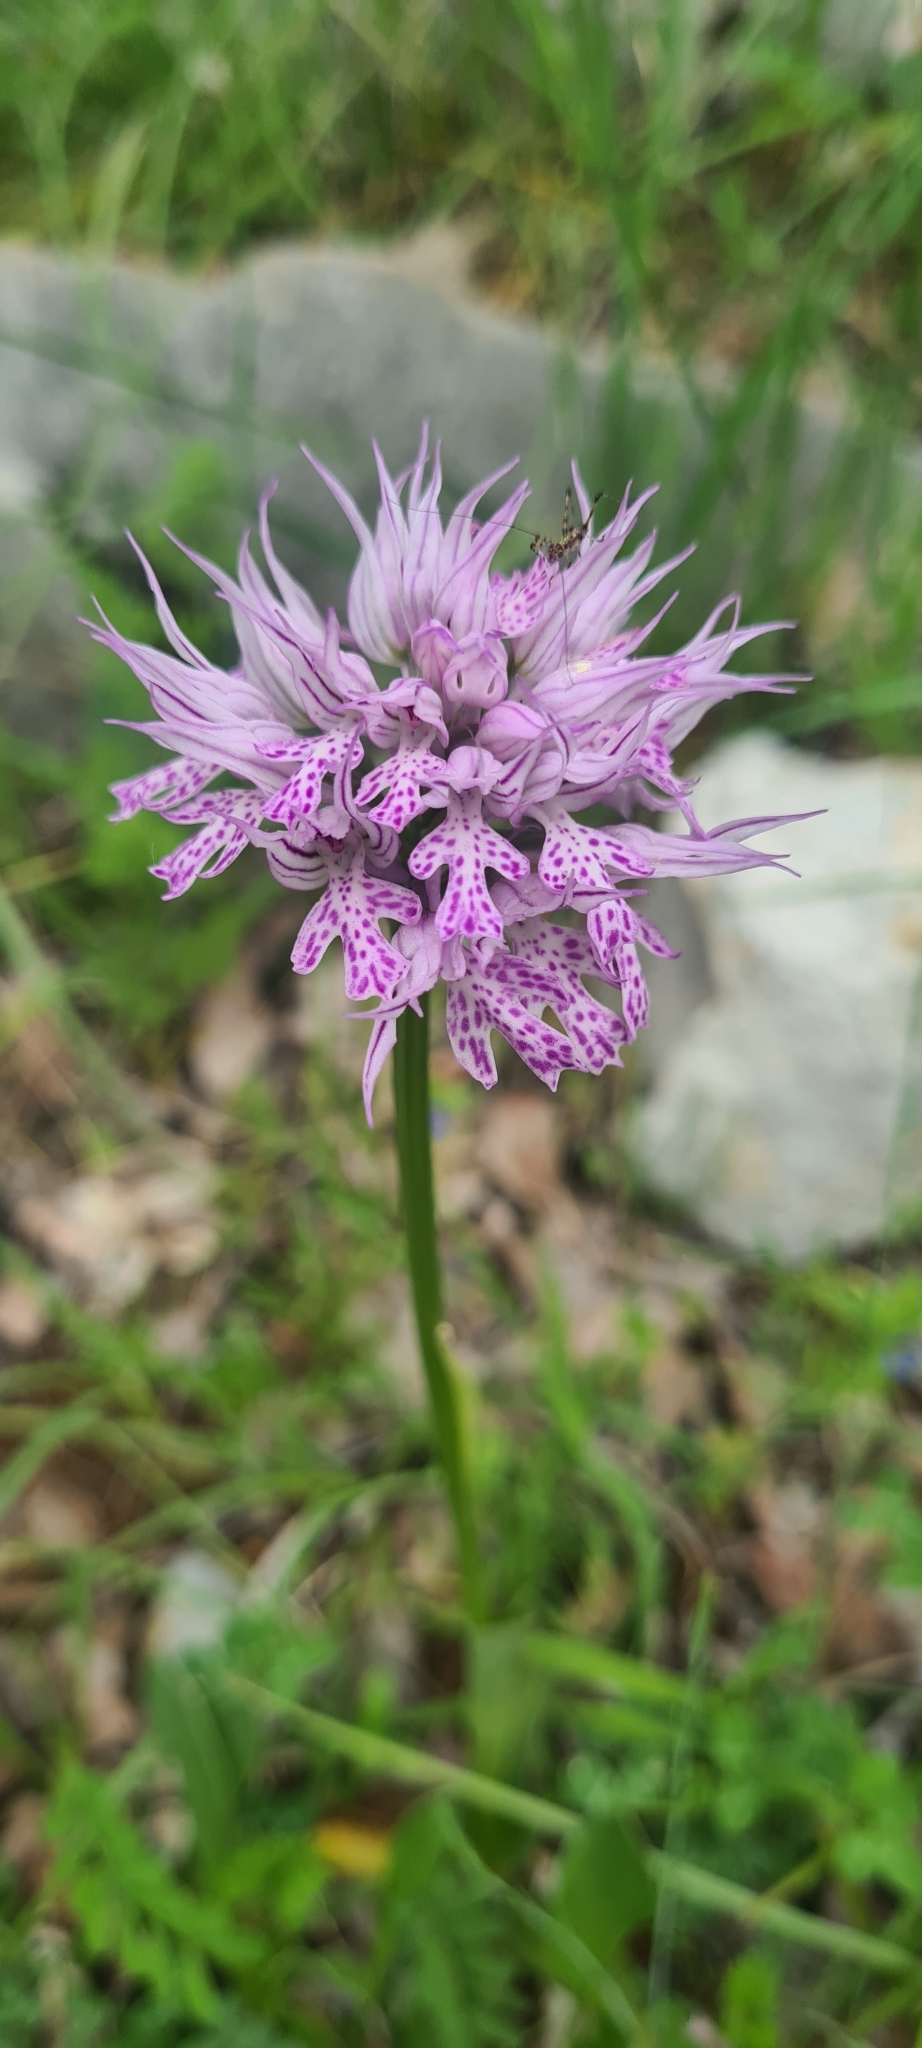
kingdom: Plantae
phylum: Tracheophyta
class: Liliopsida
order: Asparagales
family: Orchidaceae
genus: Neotinea
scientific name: Neotinea tridentata
